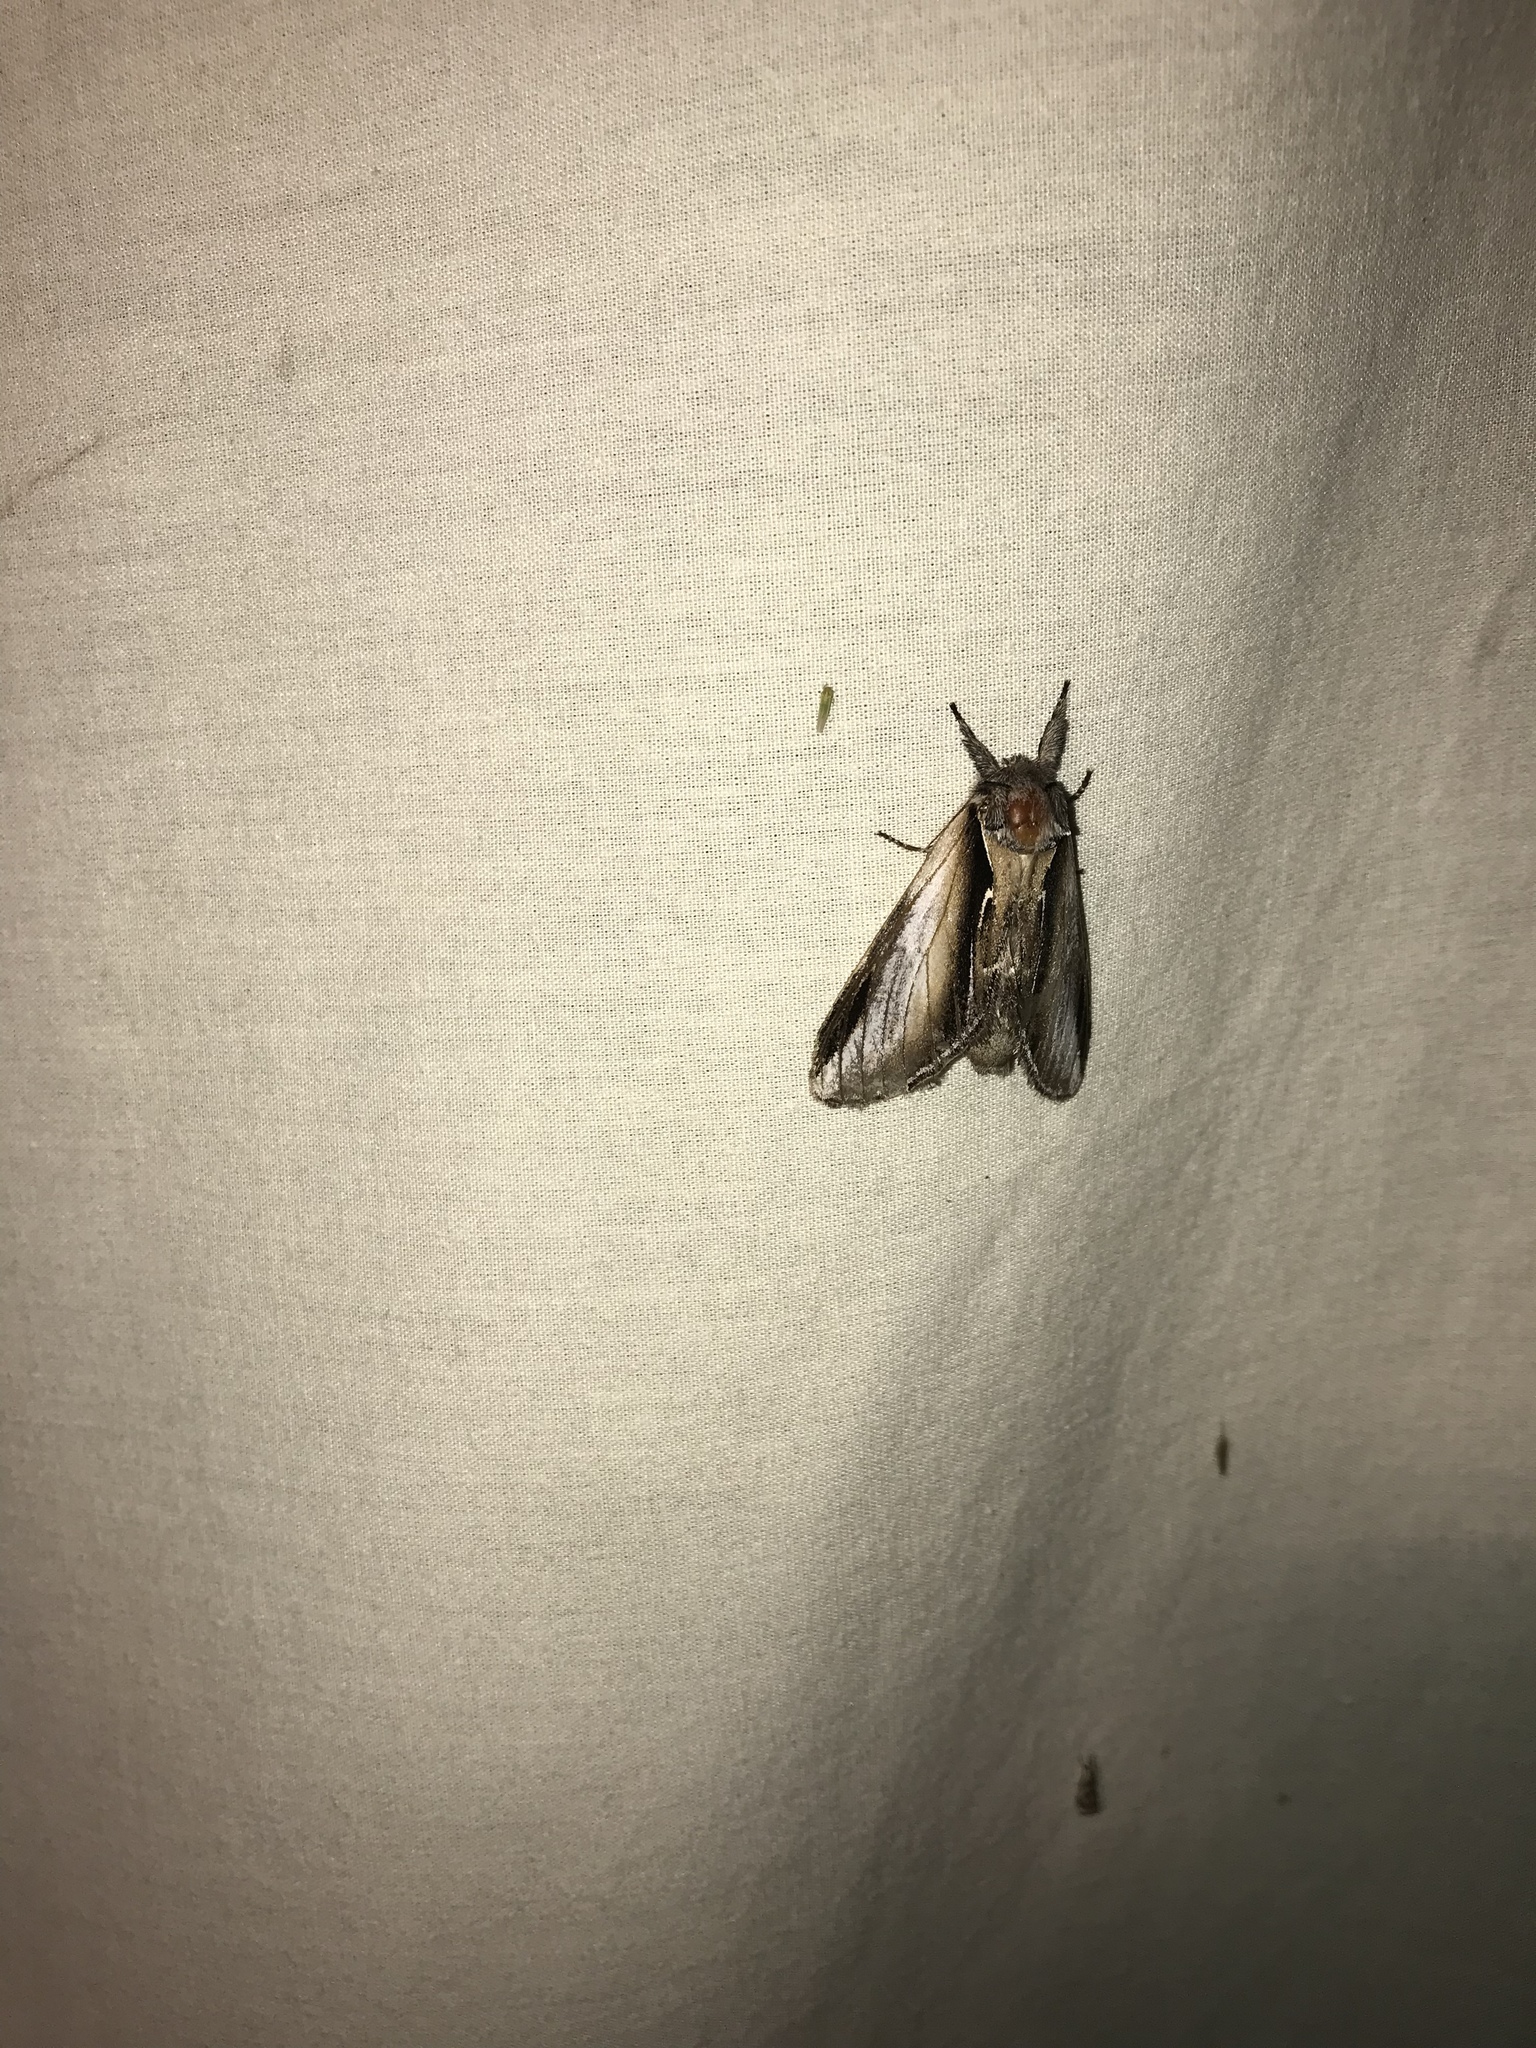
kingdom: Animalia
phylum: Arthropoda
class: Insecta
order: Lepidoptera
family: Notodontidae
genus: Pheosia
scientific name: Pheosia rimosa
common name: Black-rimmed prominent
